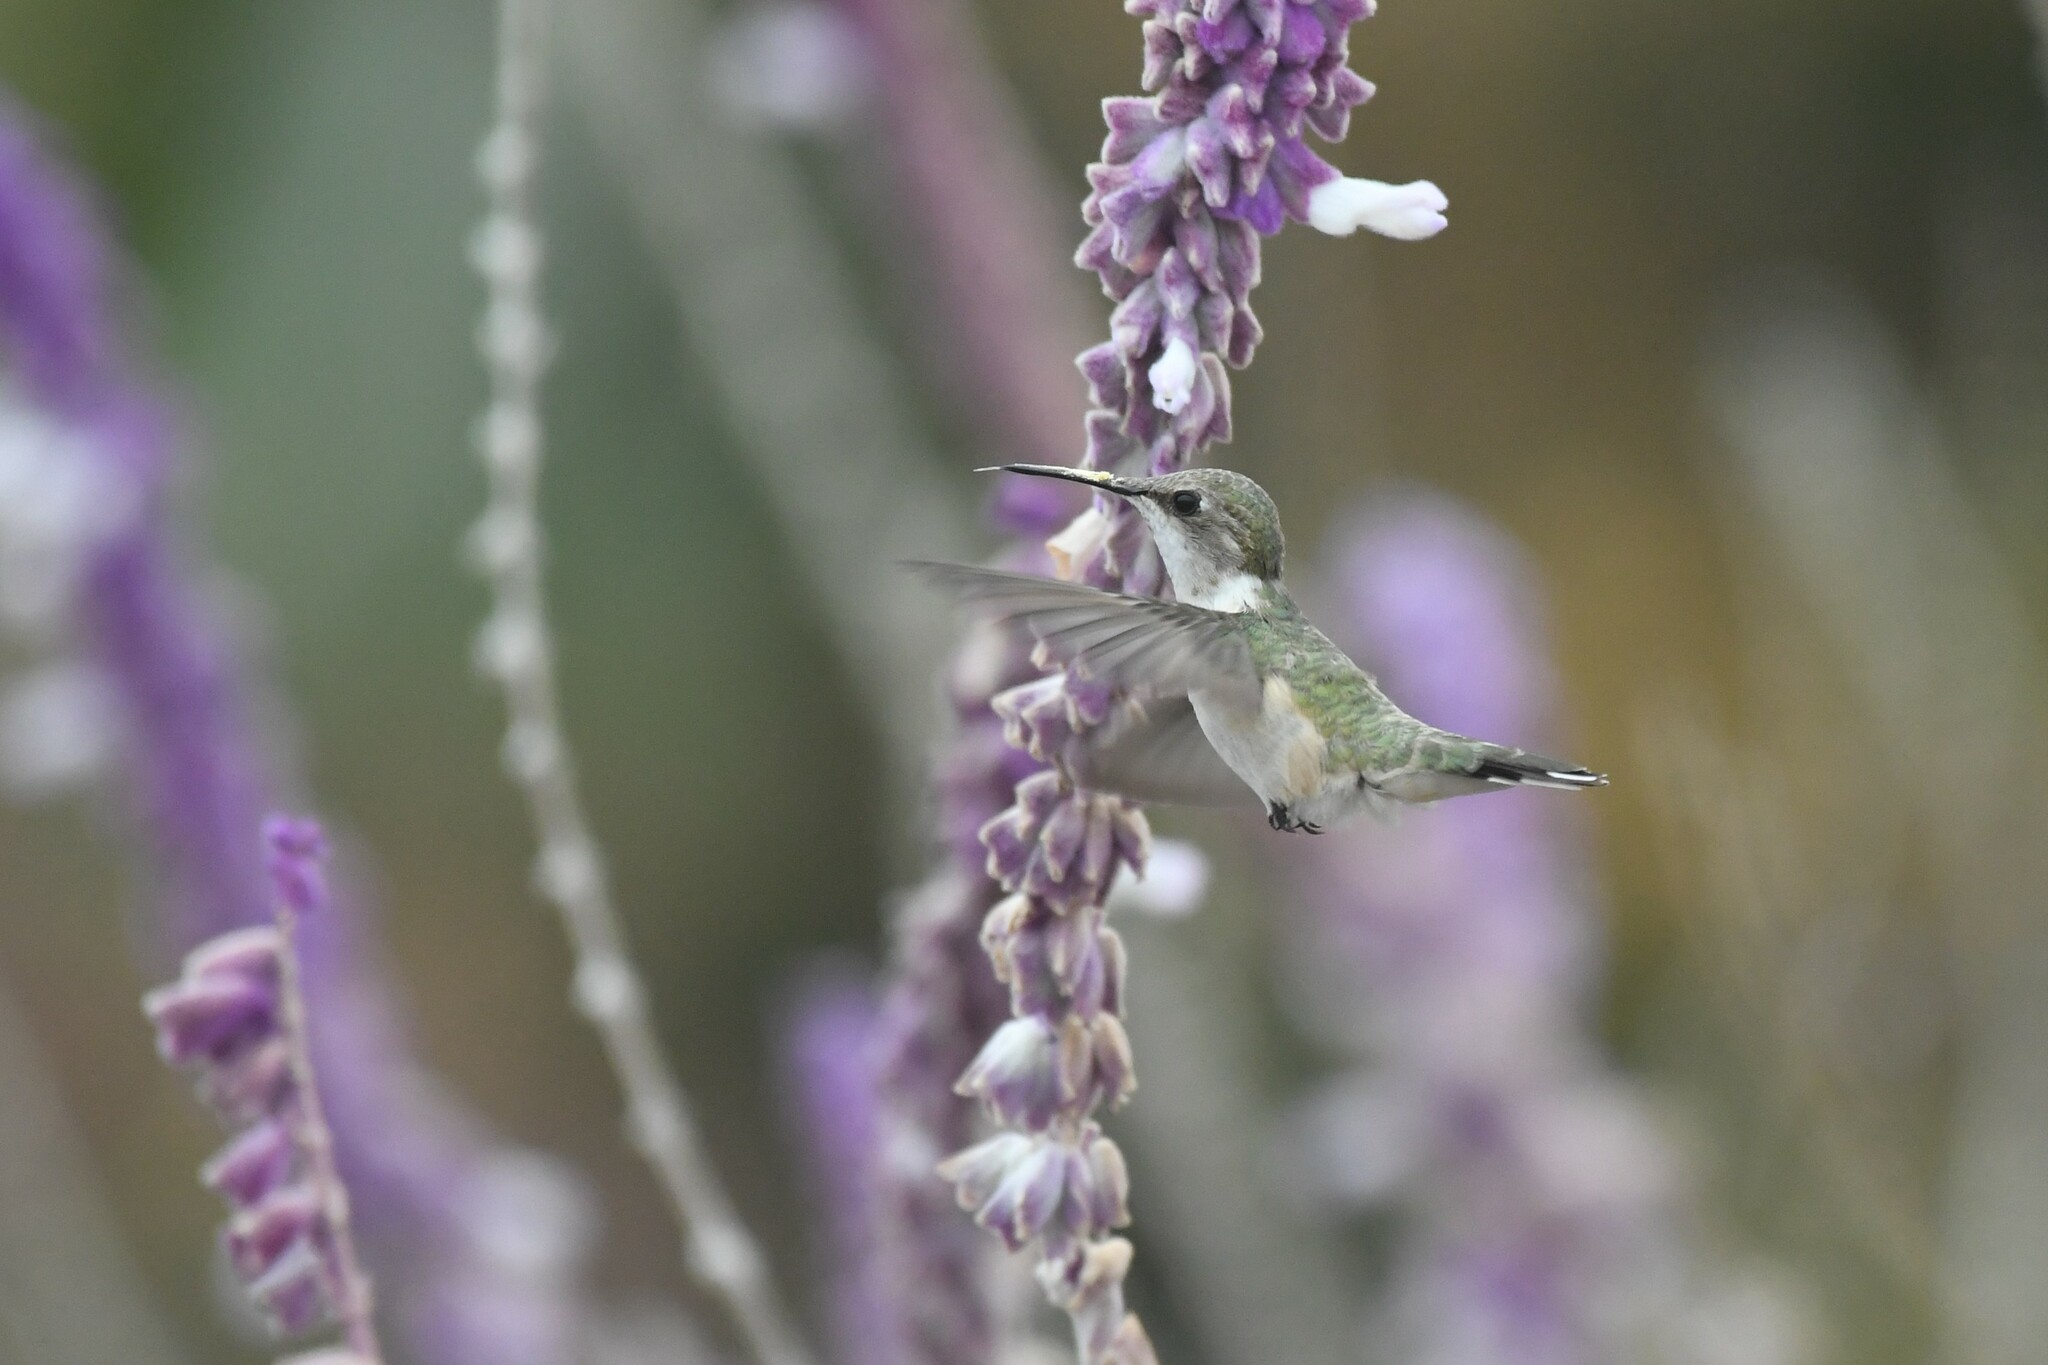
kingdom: Animalia
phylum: Chordata
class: Aves
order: Apodiformes
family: Trochilidae
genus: Thaumastura
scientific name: Thaumastura cora
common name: Peruvian sheartail
